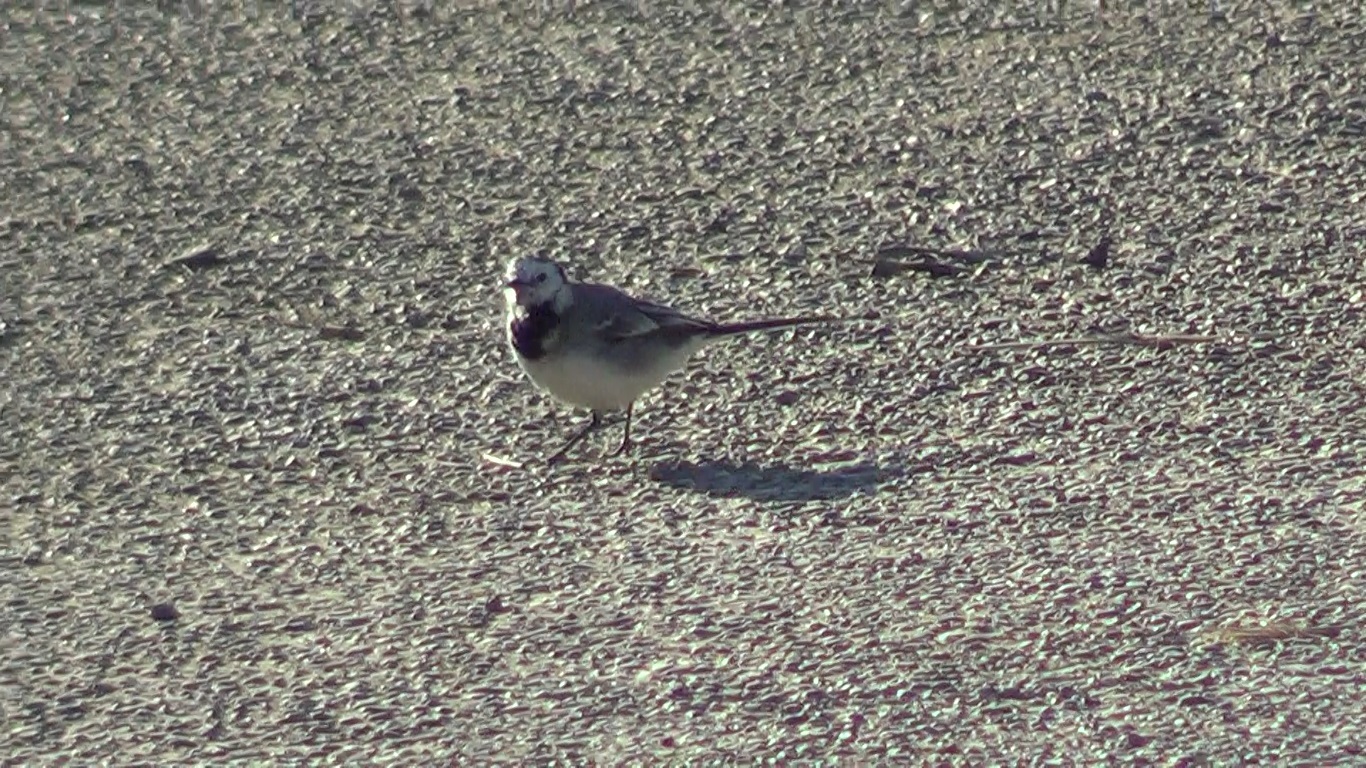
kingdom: Animalia
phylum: Chordata
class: Aves
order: Passeriformes
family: Motacillidae
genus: Motacilla
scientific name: Motacilla alba
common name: White wagtail
